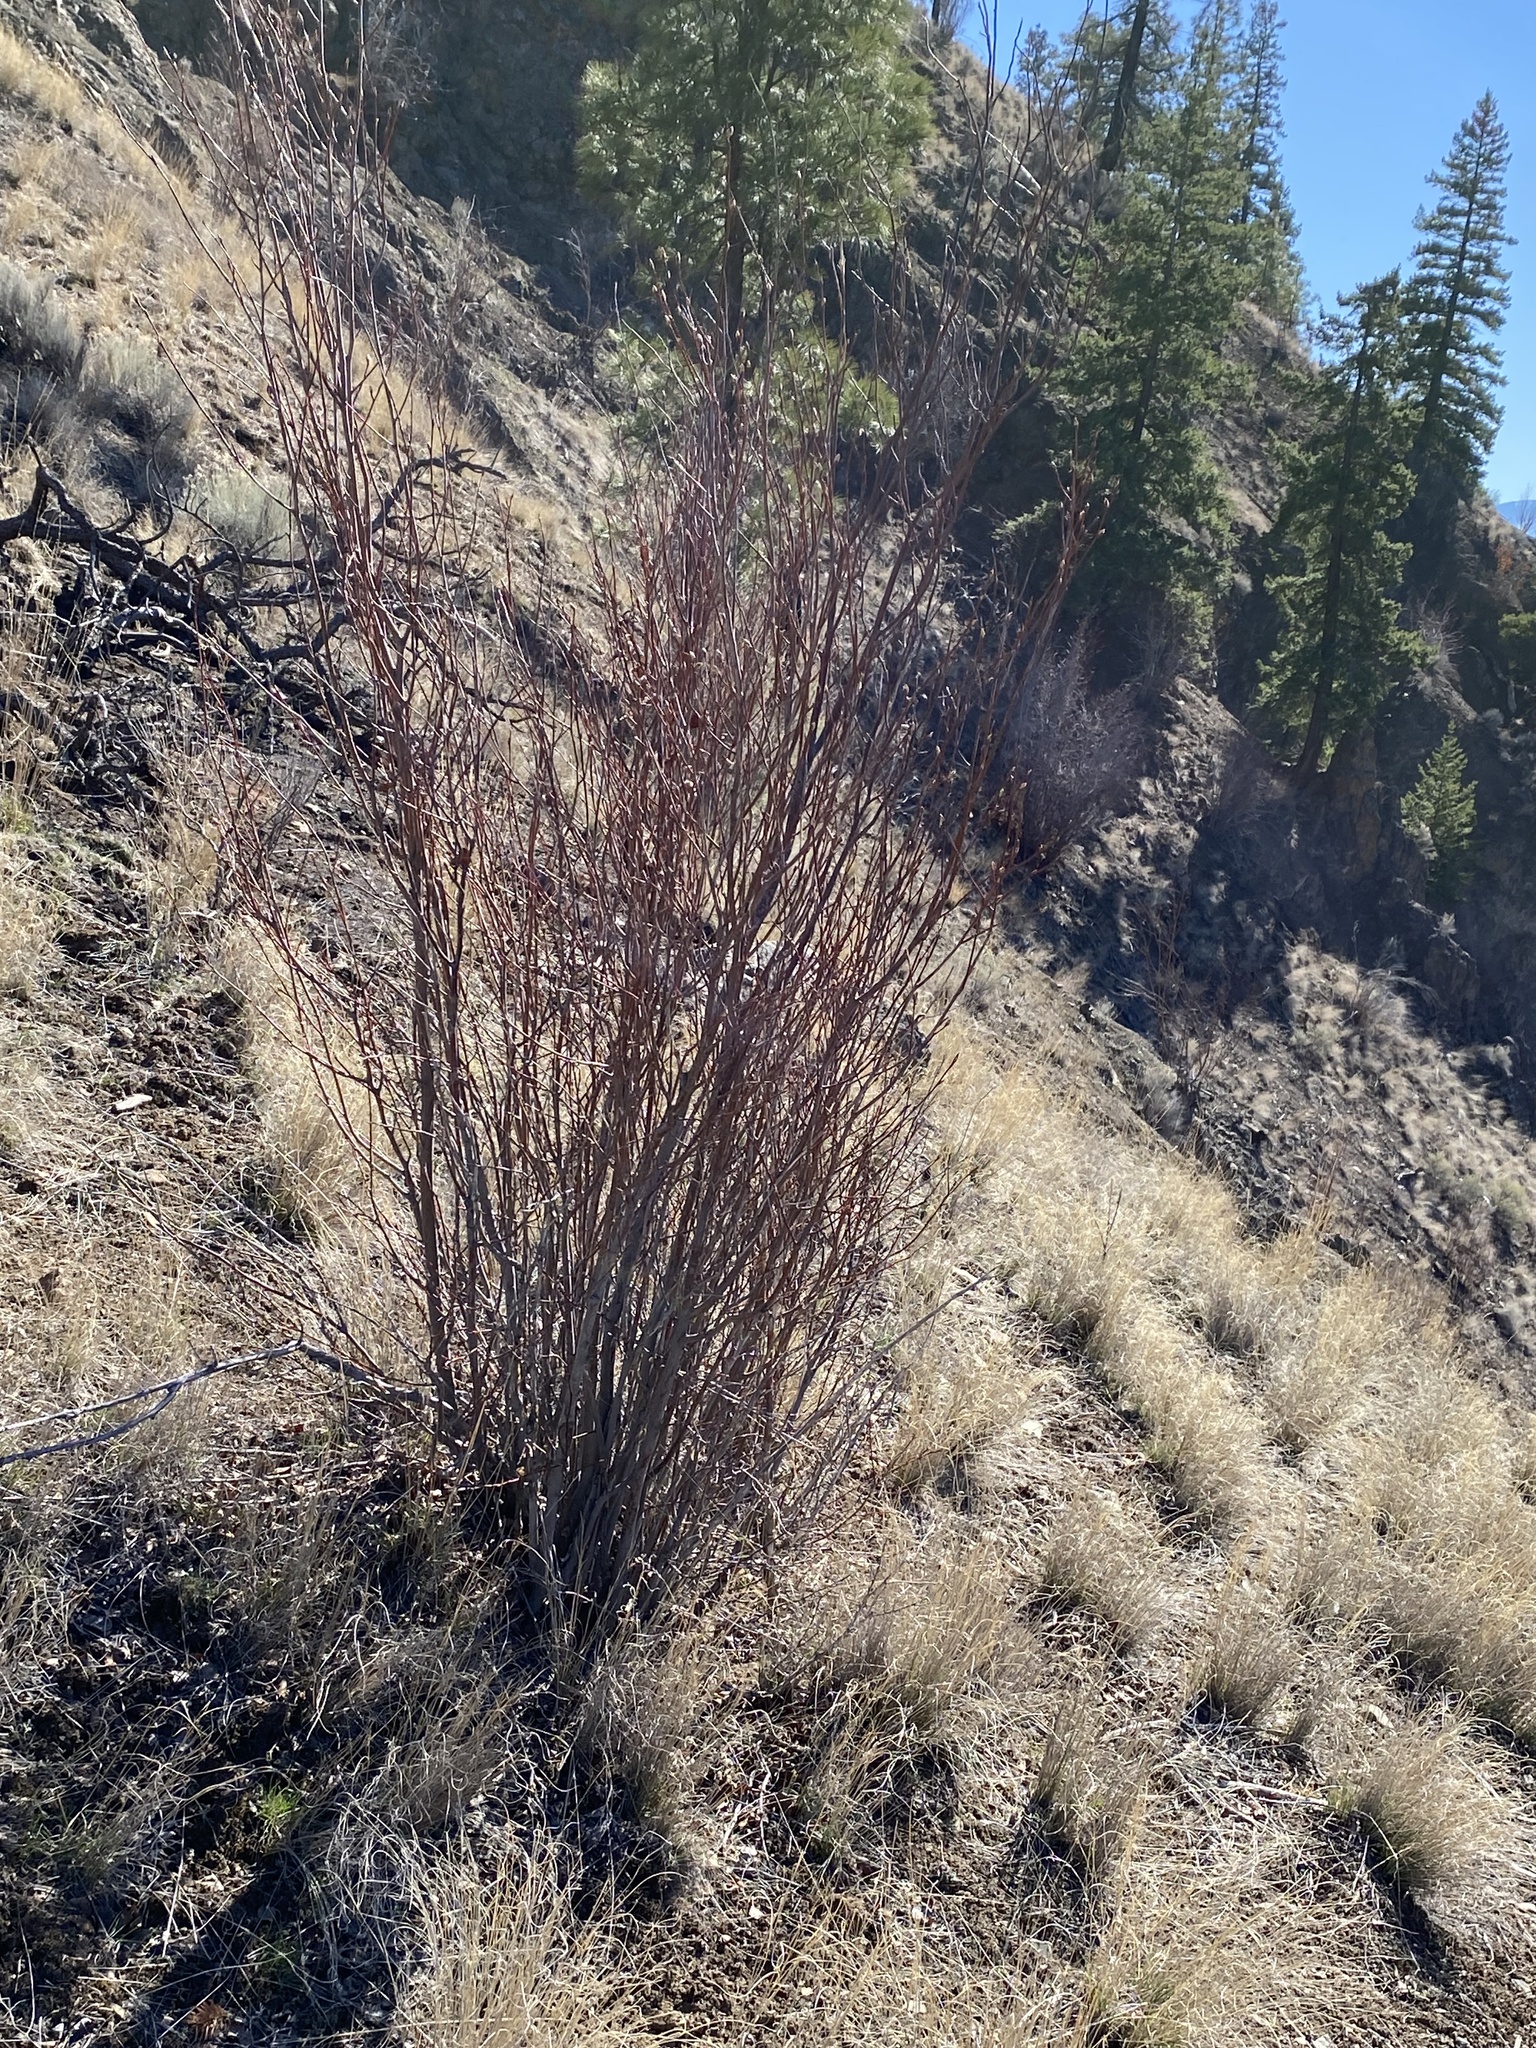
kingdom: Plantae
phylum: Tracheophyta
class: Magnoliopsida
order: Rosales
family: Rosaceae
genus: Amelanchier
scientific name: Amelanchier alnifolia
